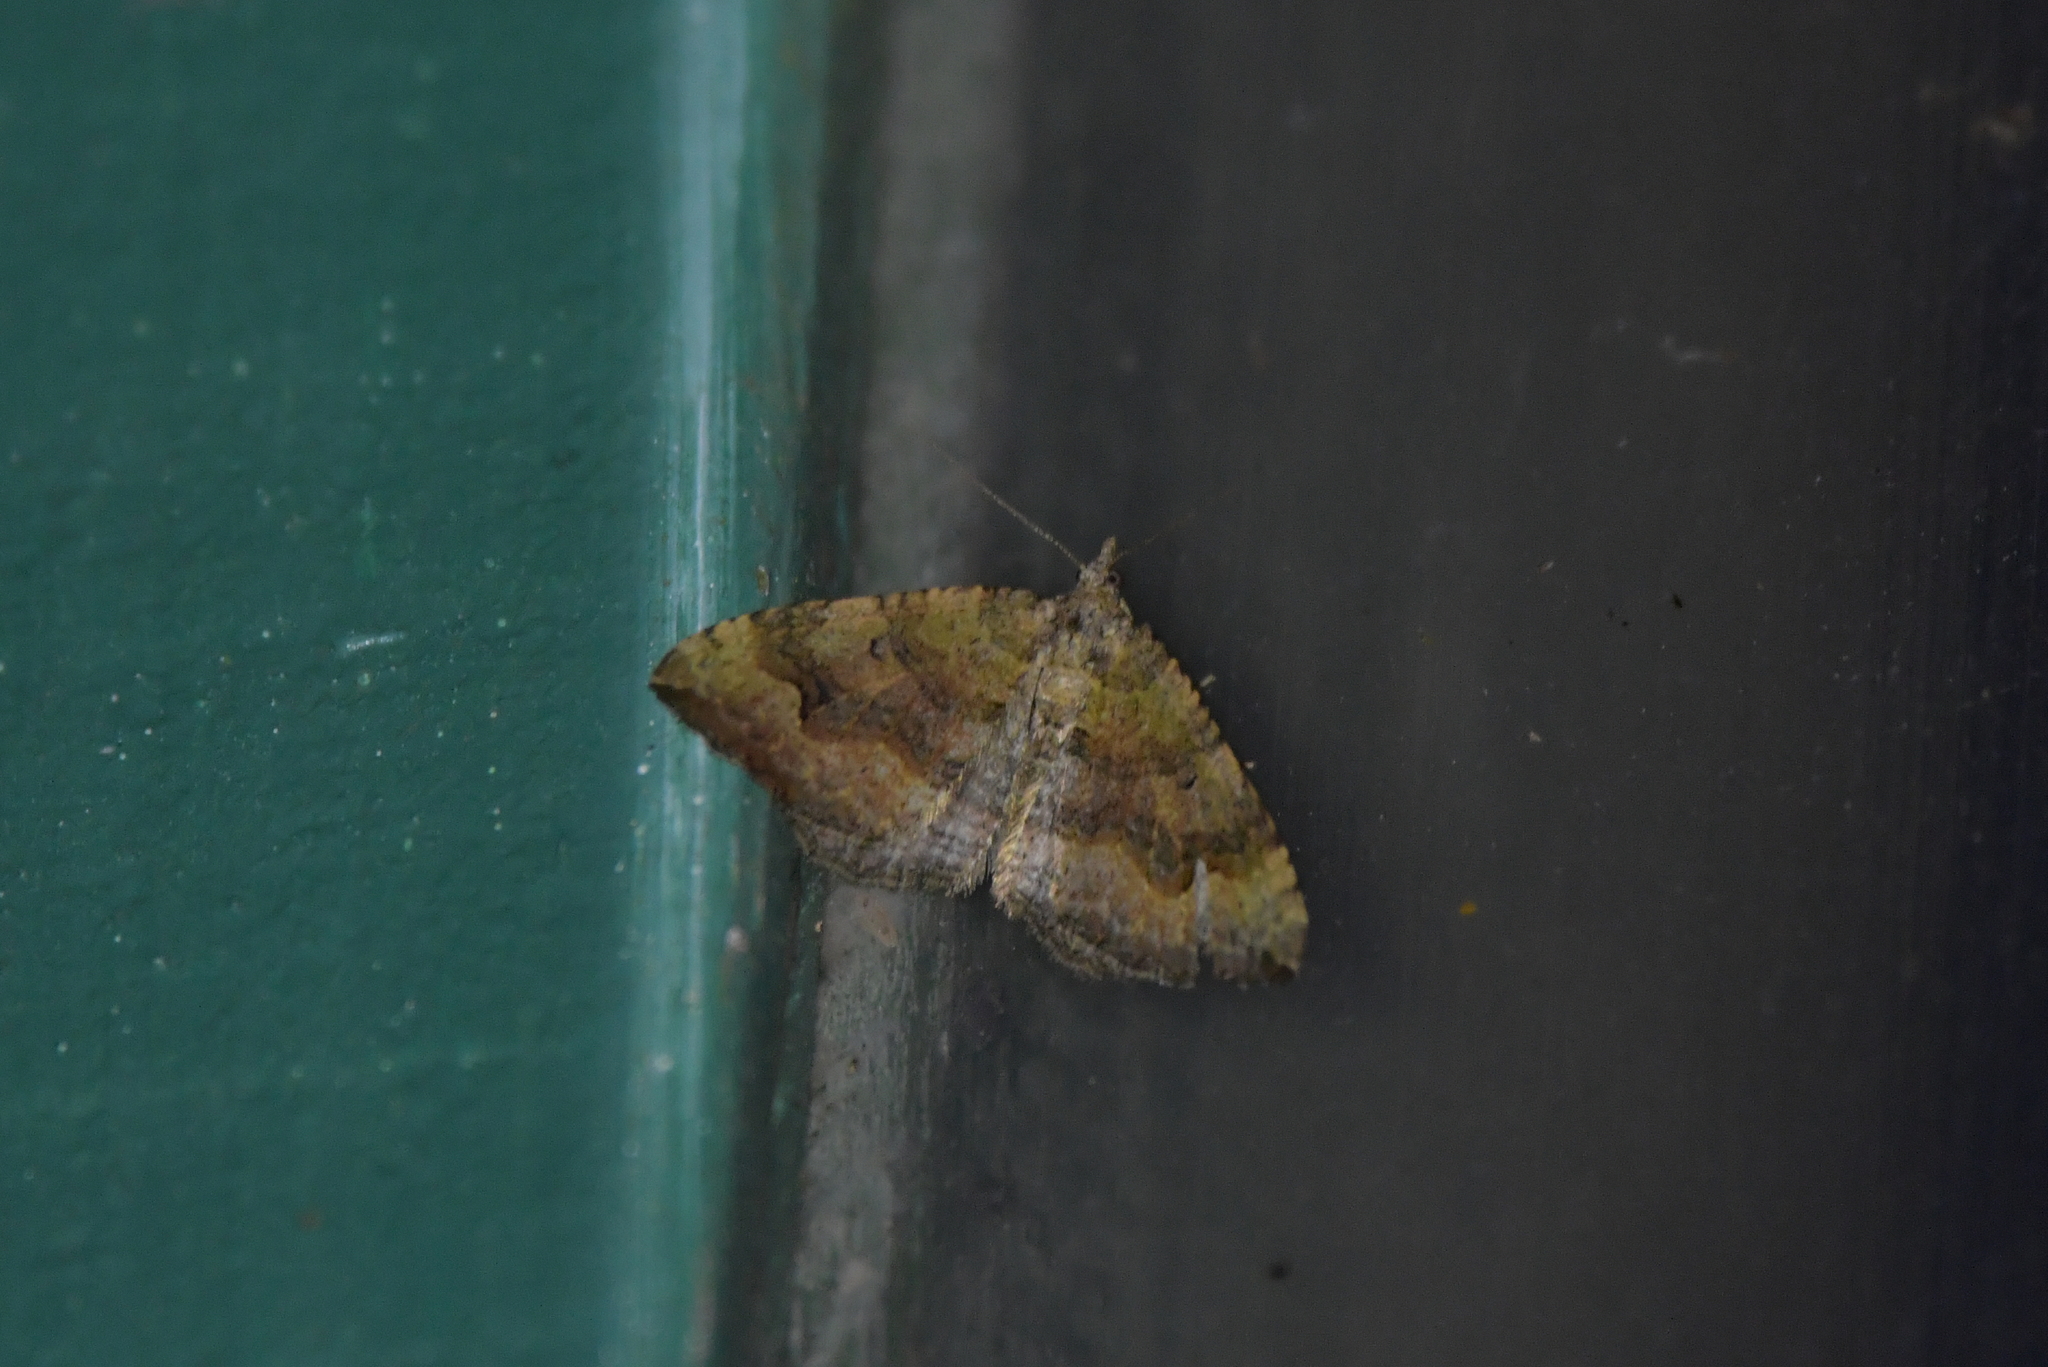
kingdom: Animalia
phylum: Arthropoda
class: Insecta
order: Lepidoptera
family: Geometridae
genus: Epyaxa
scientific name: Epyaxa rosearia
